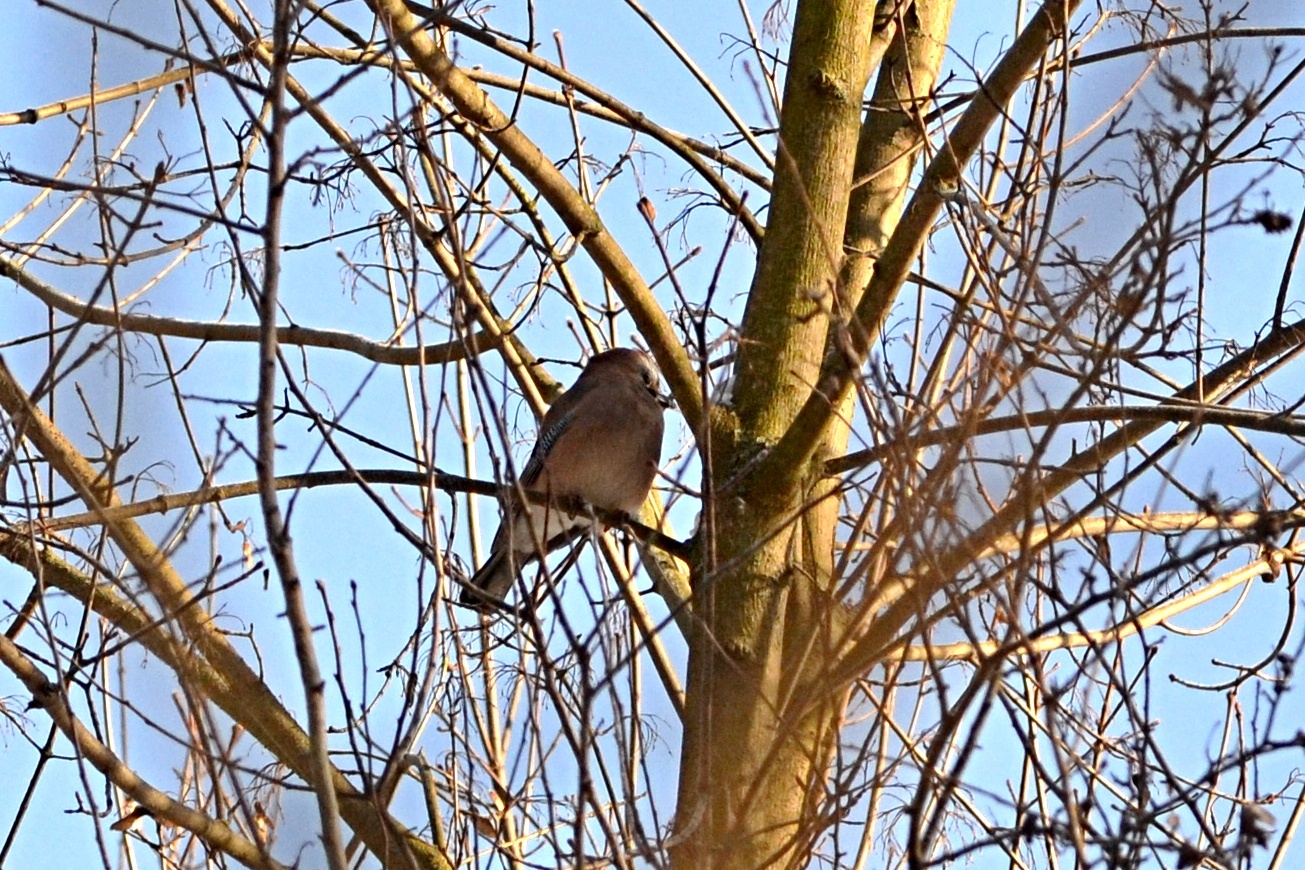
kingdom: Animalia
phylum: Chordata
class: Aves
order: Passeriformes
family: Corvidae
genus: Garrulus
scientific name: Garrulus glandarius
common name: Eurasian jay
